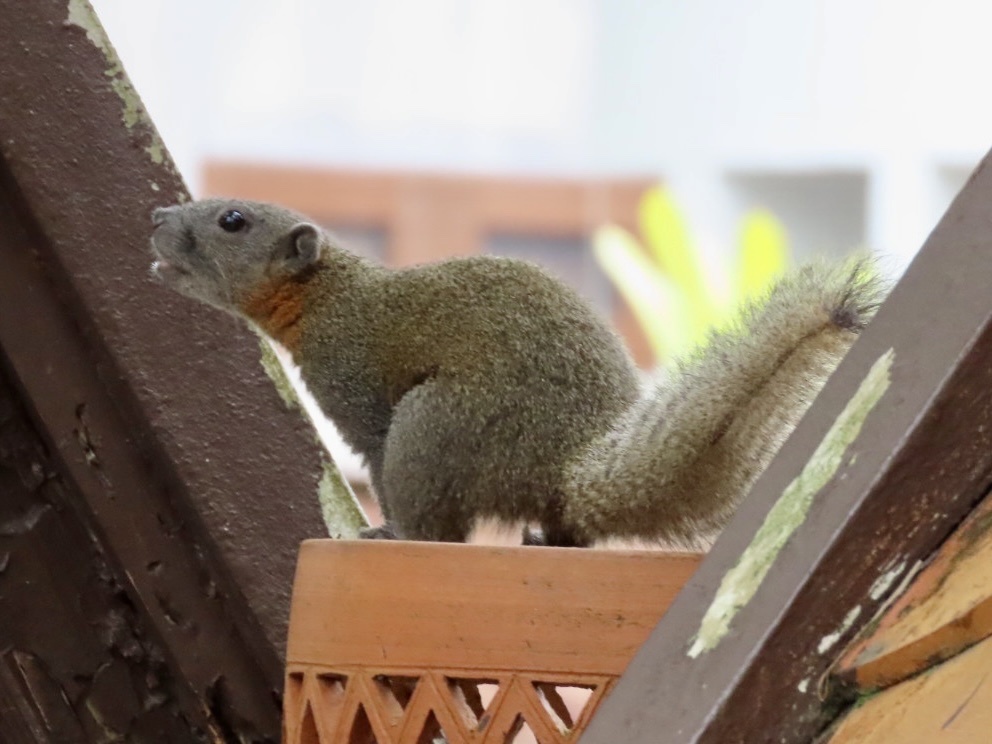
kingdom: Animalia
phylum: Chordata
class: Mammalia
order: Rodentia
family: Sciuridae
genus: Callosciurus
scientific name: Callosciurus caniceps
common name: Gray-bellied squirrel
